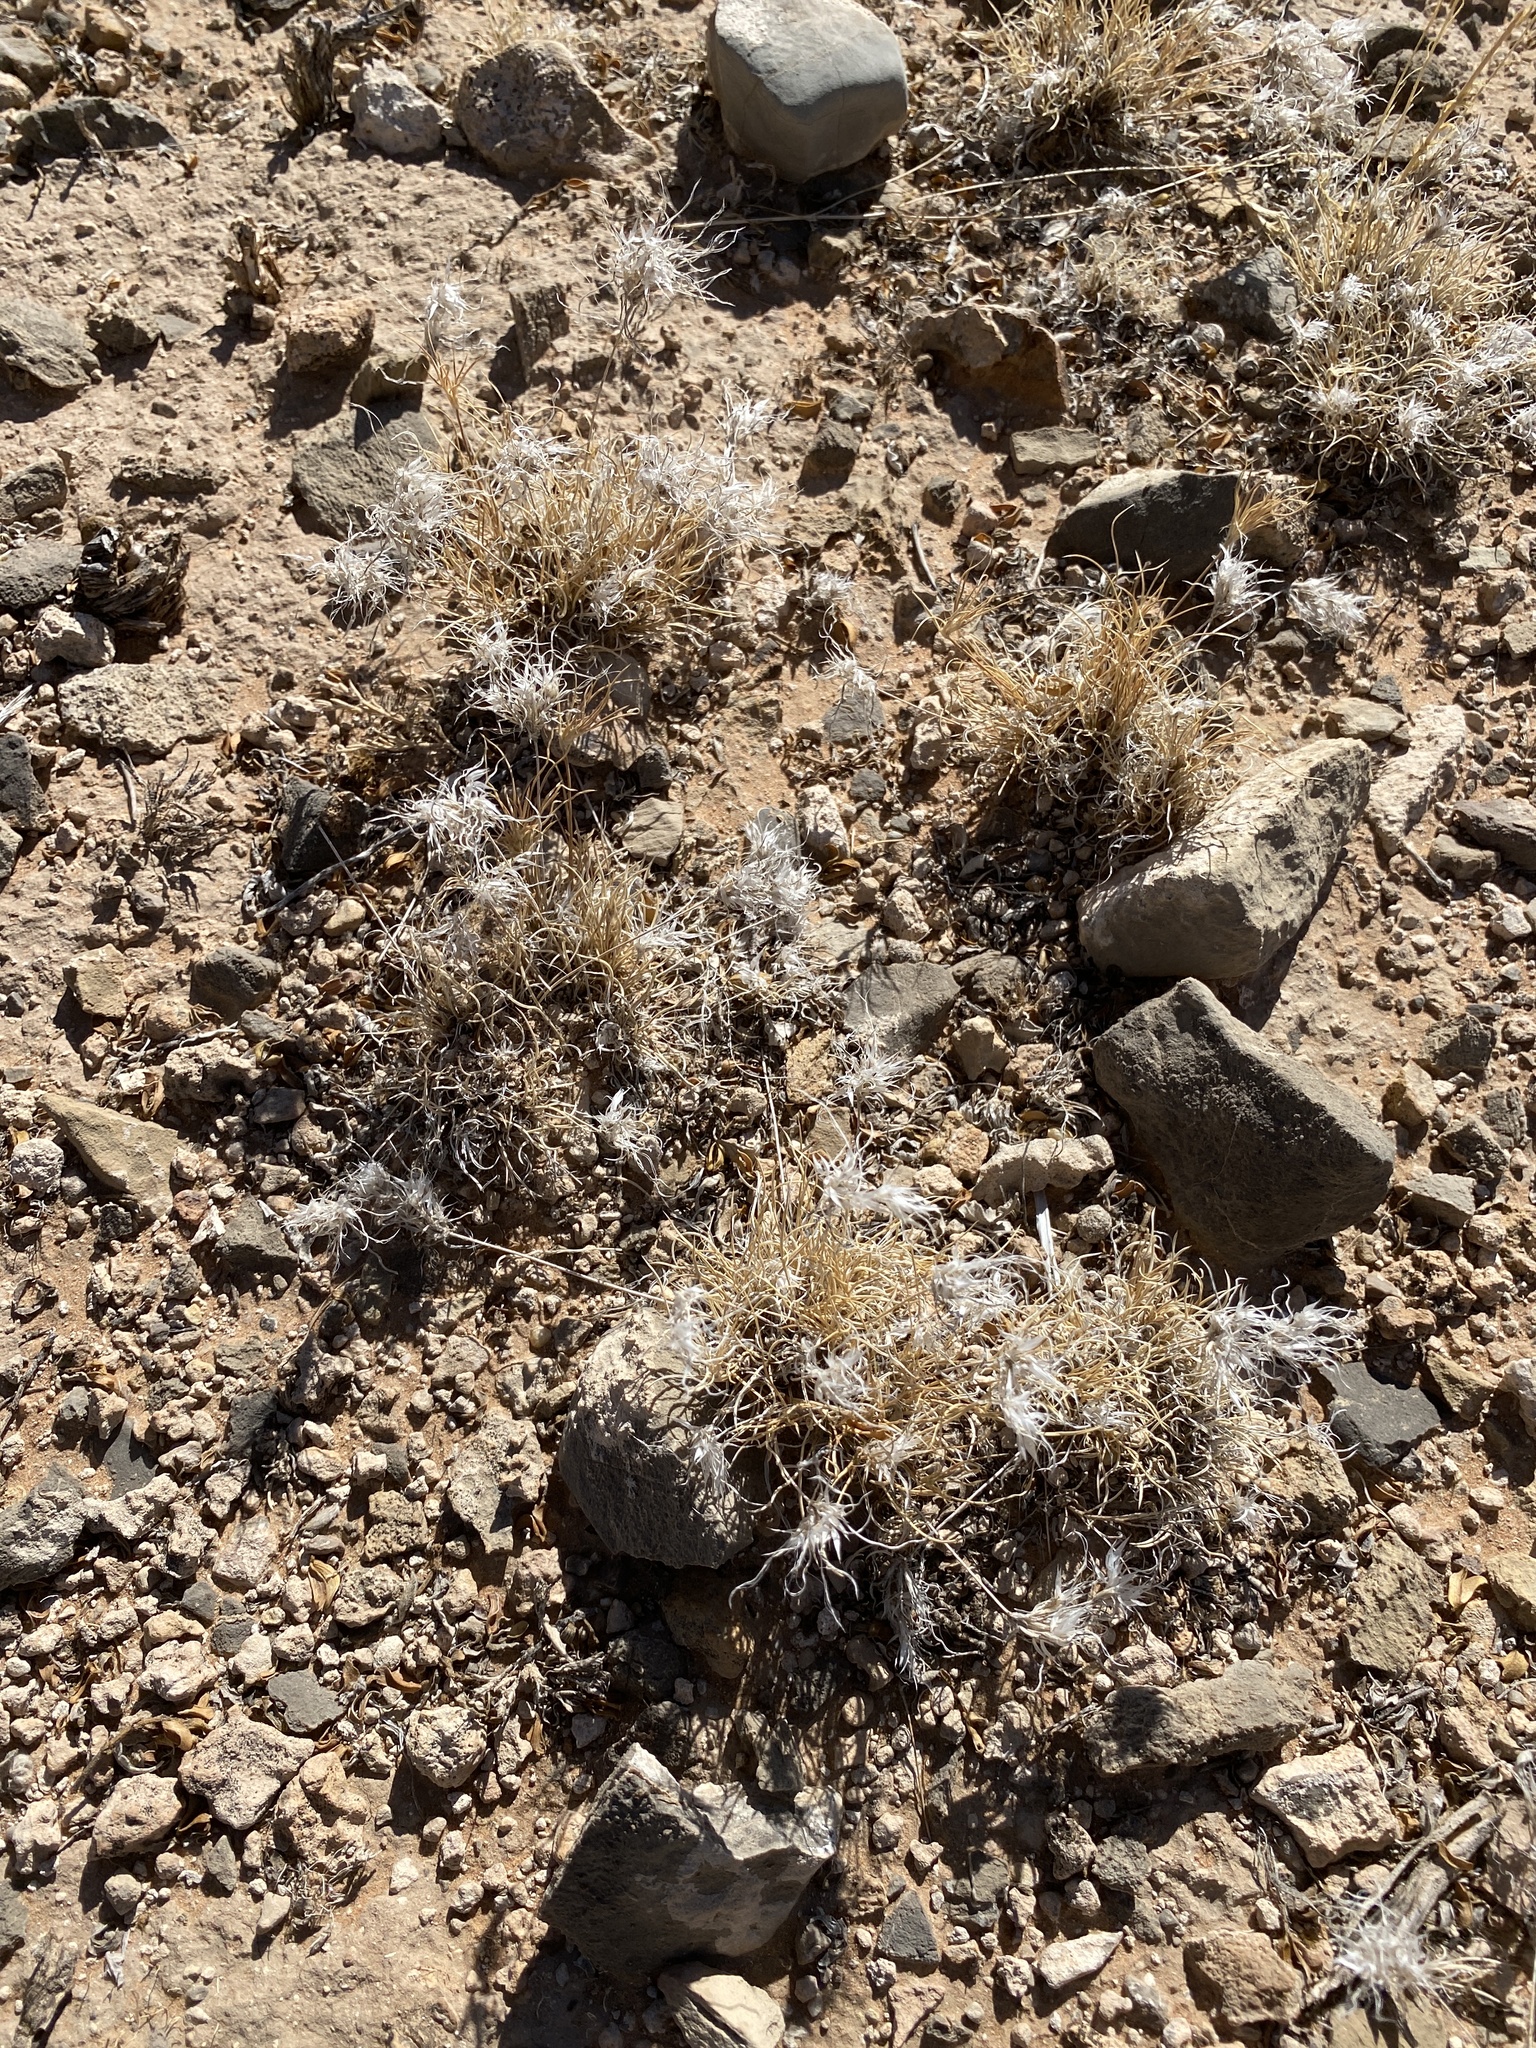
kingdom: Plantae
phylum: Tracheophyta
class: Liliopsida
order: Poales
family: Poaceae
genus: Dasyochloa
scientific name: Dasyochloa pulchella
